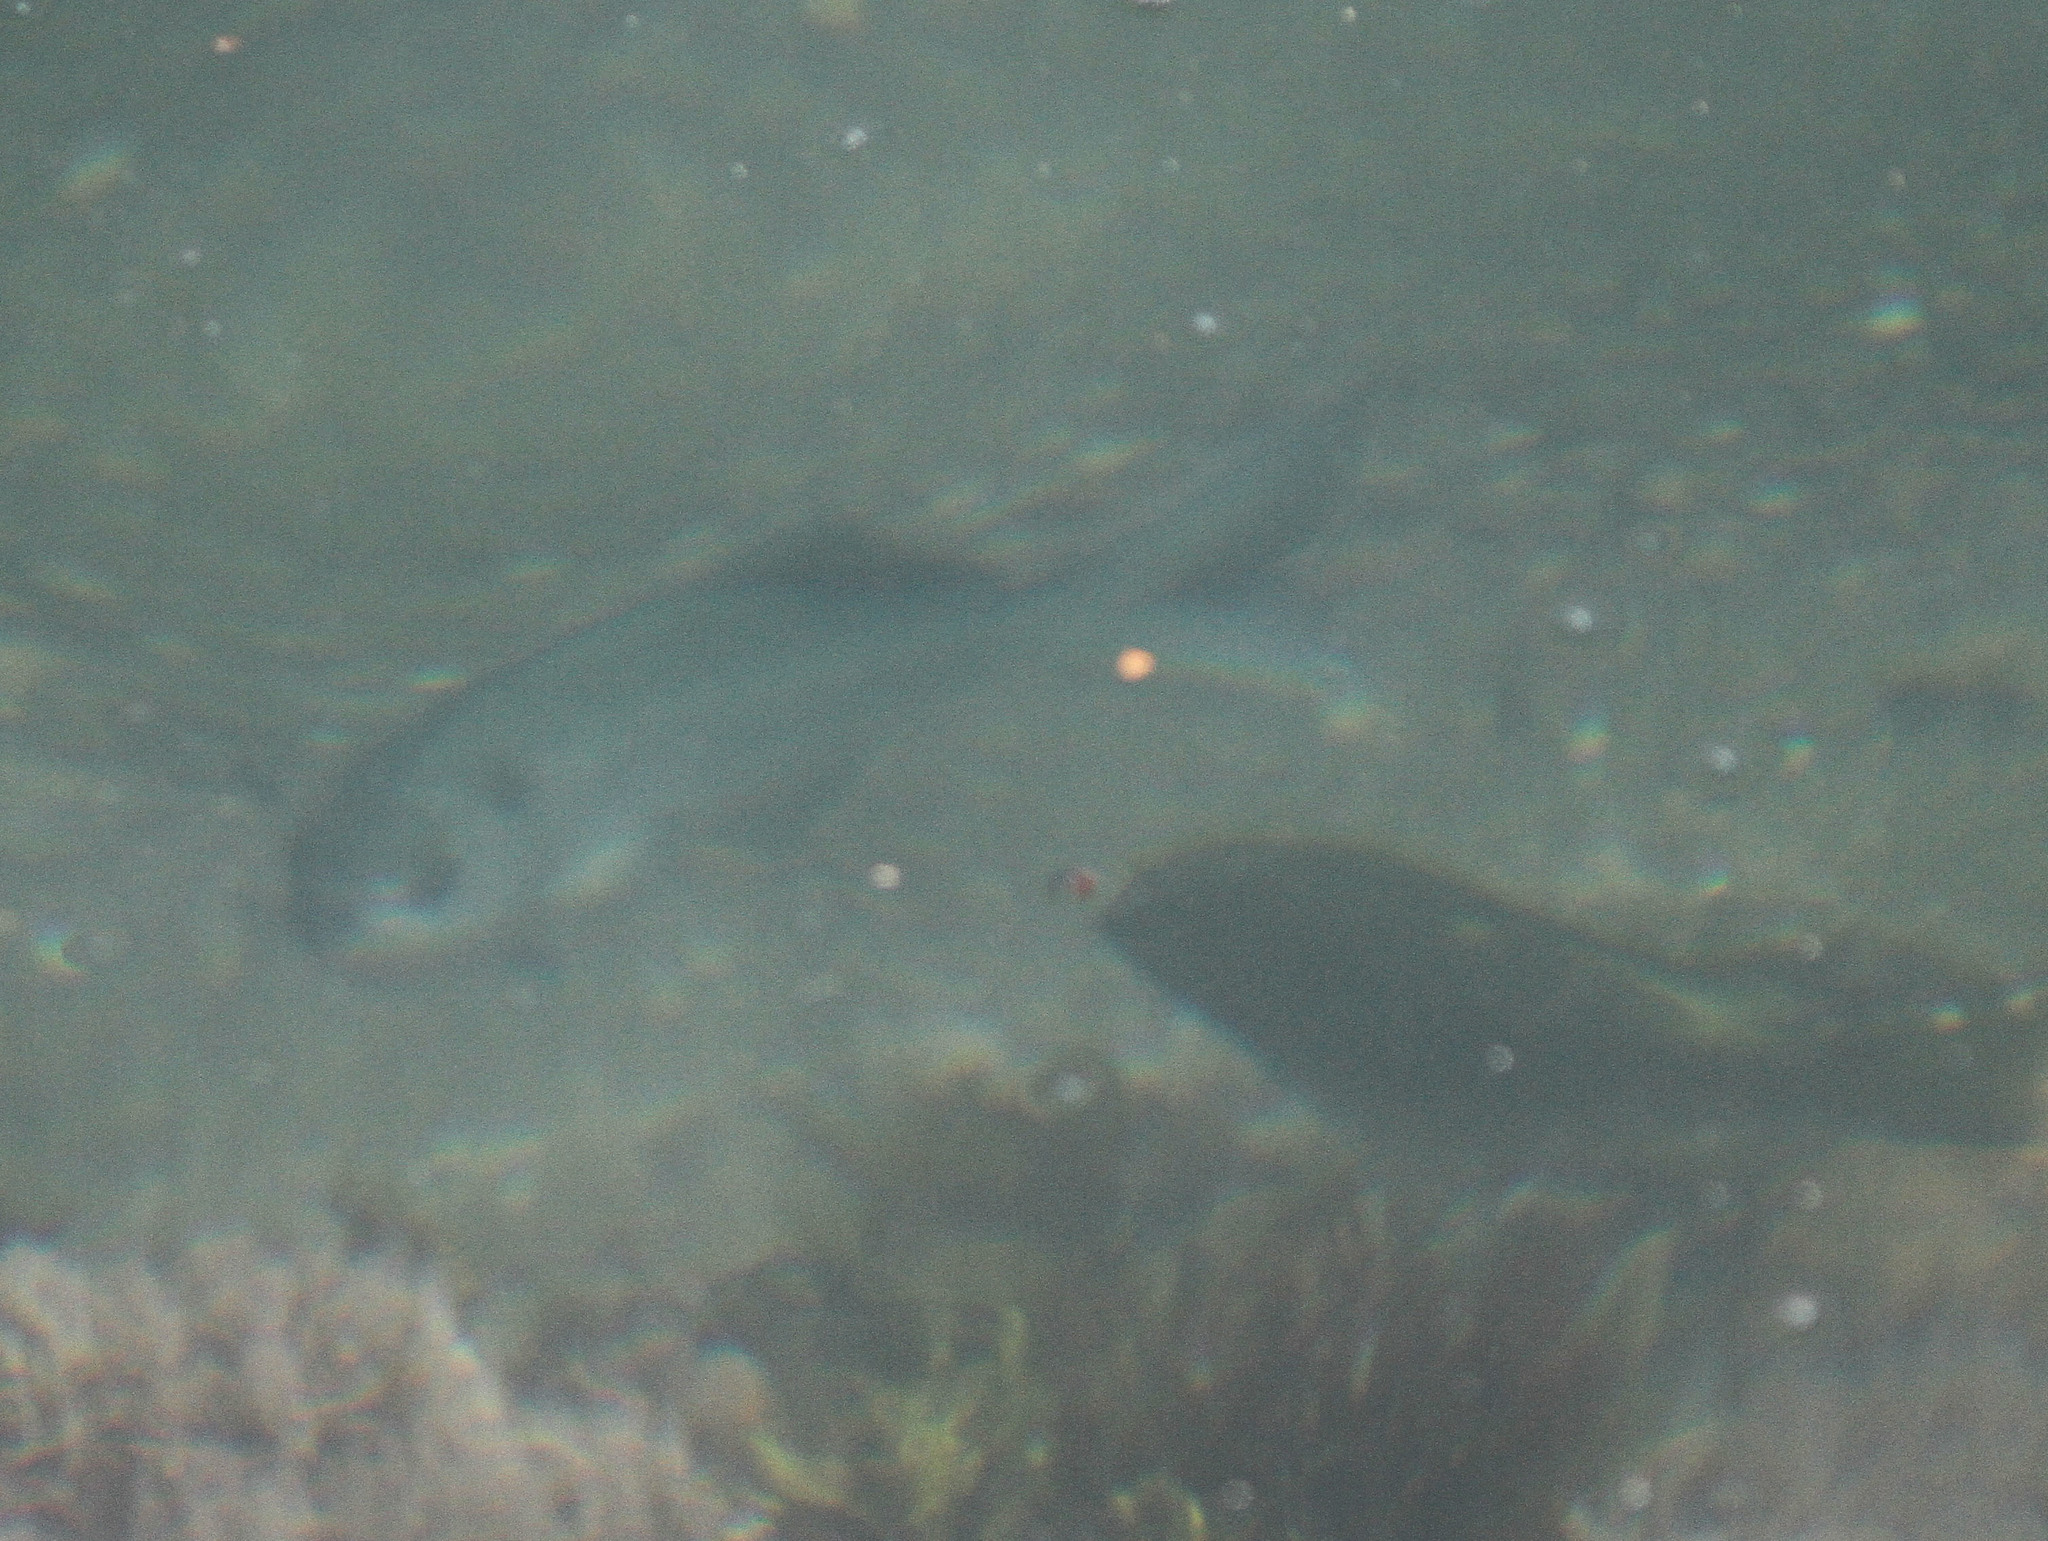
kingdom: Animalia
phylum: Chordata
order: Perciformes
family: Kyphosidae
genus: Medialuna
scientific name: Medialuna californiensis
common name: Halfmoon
